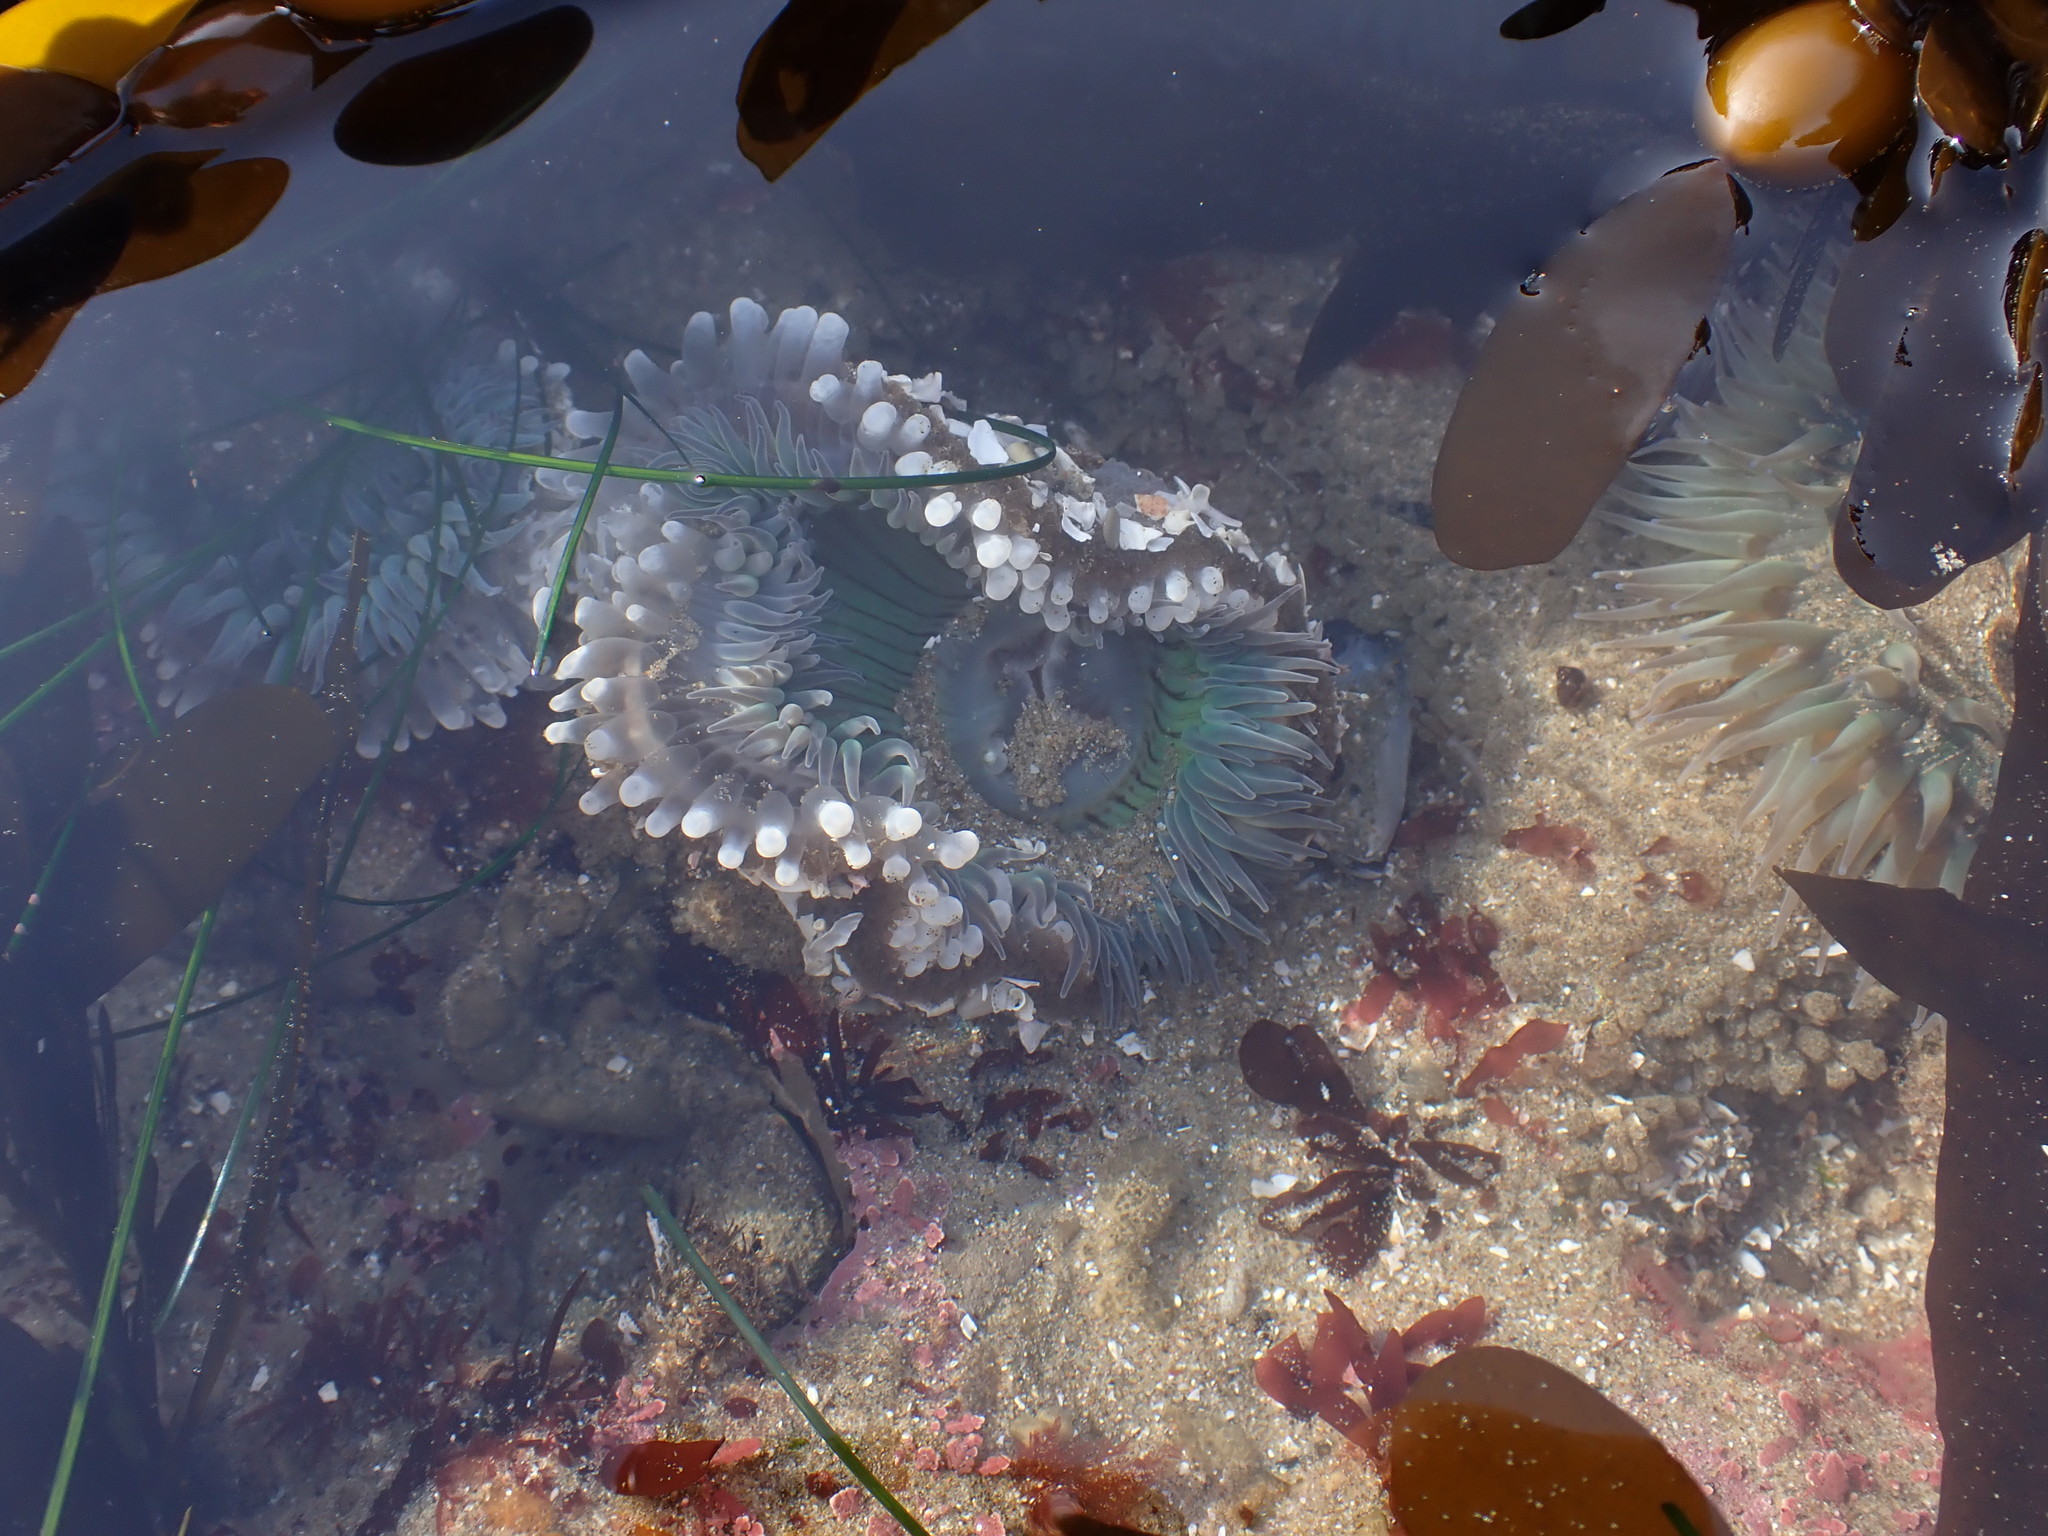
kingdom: Animalia
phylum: Cnidaria
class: Anthozoa
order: Actiniaria
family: Actiniidae
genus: Anthopleura
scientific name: Anthopleura sola
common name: Sun anemone
